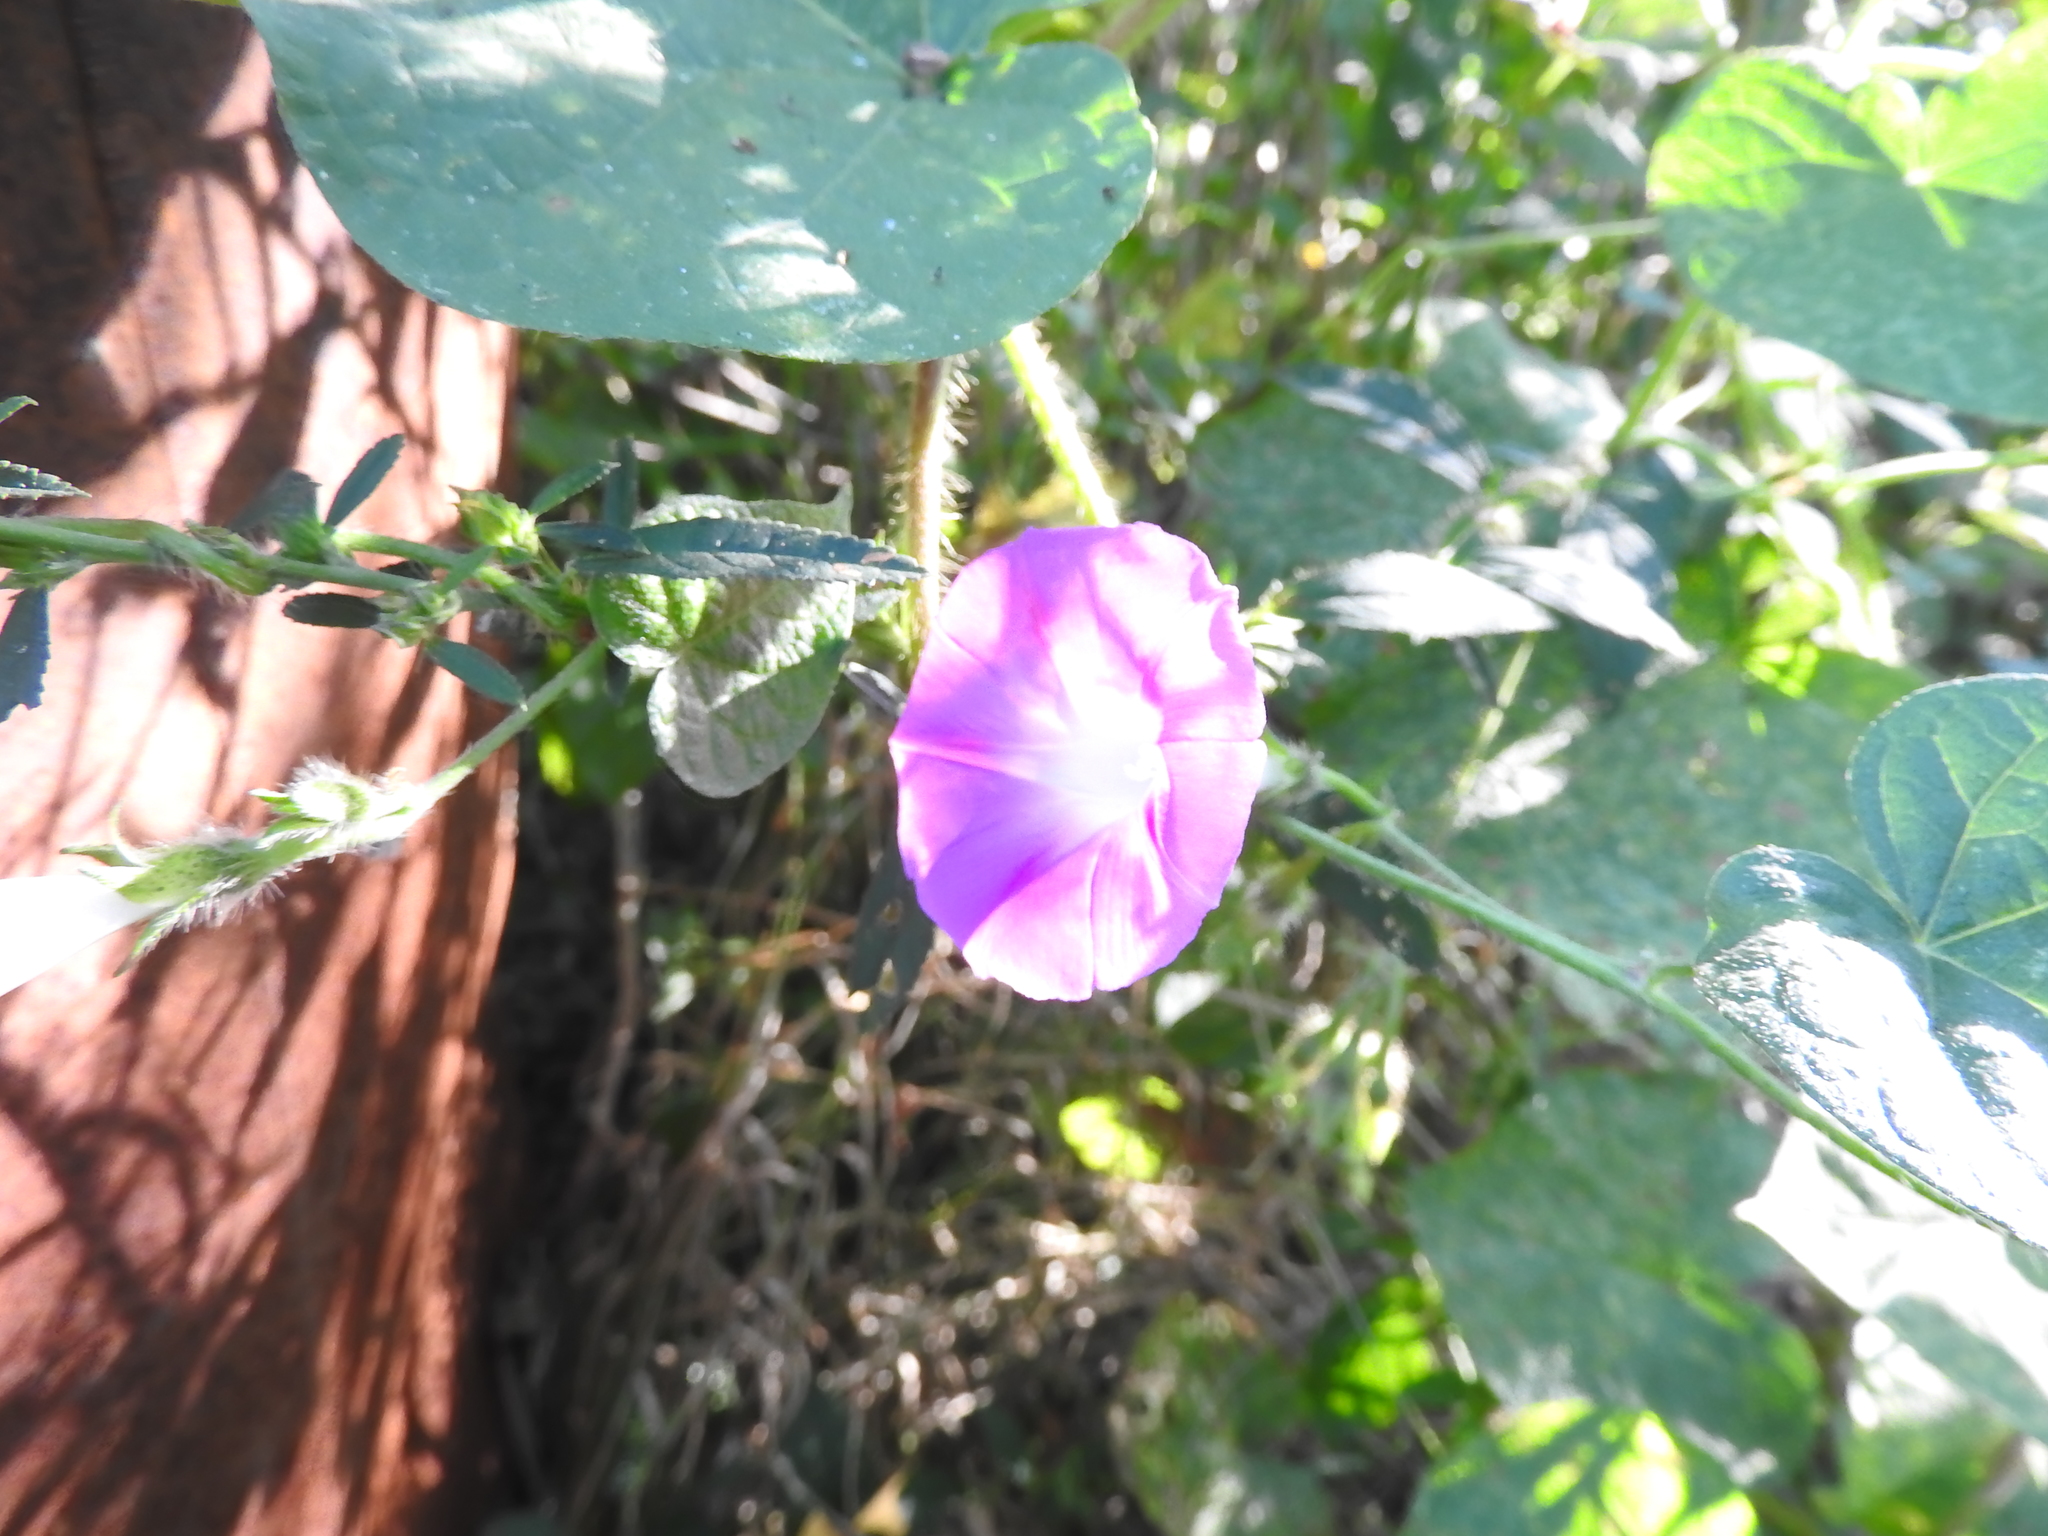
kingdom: Plantae
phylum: Tracheophyta
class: Magnoliopsida
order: Solanales
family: Convolvulaceae
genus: Ipomoea
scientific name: Ipomoea purpurea
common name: Common morning-glory
